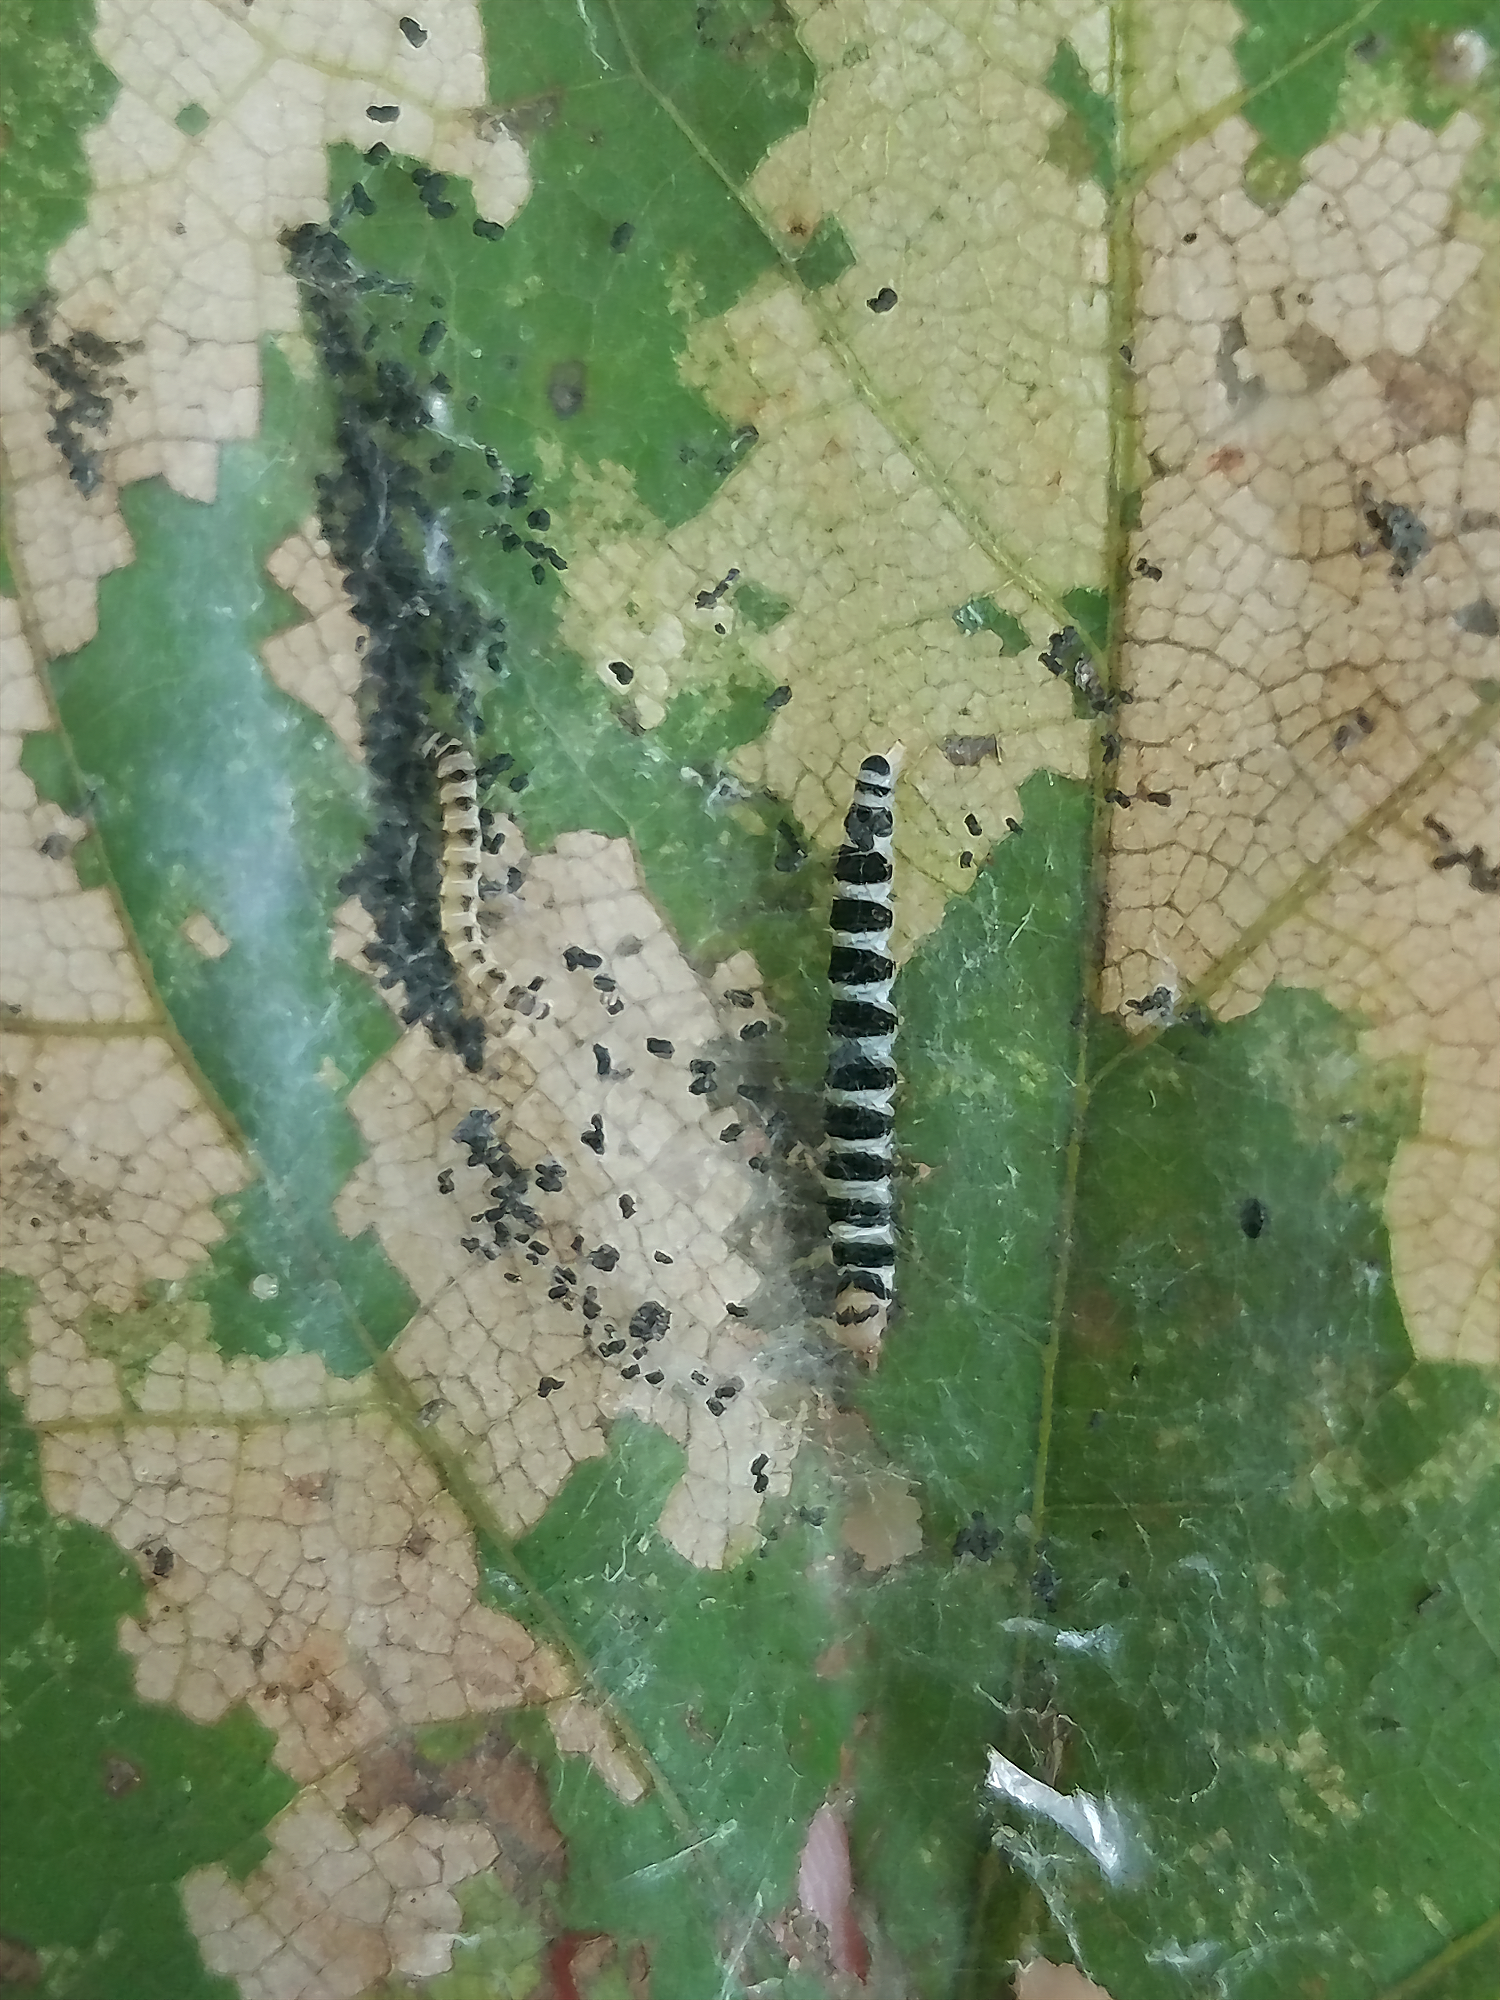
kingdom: Animalia
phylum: Arthropoda
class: Insecta
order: Lepidoptera
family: Gelechiidae
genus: Fascista
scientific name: Fascista cercerisella
